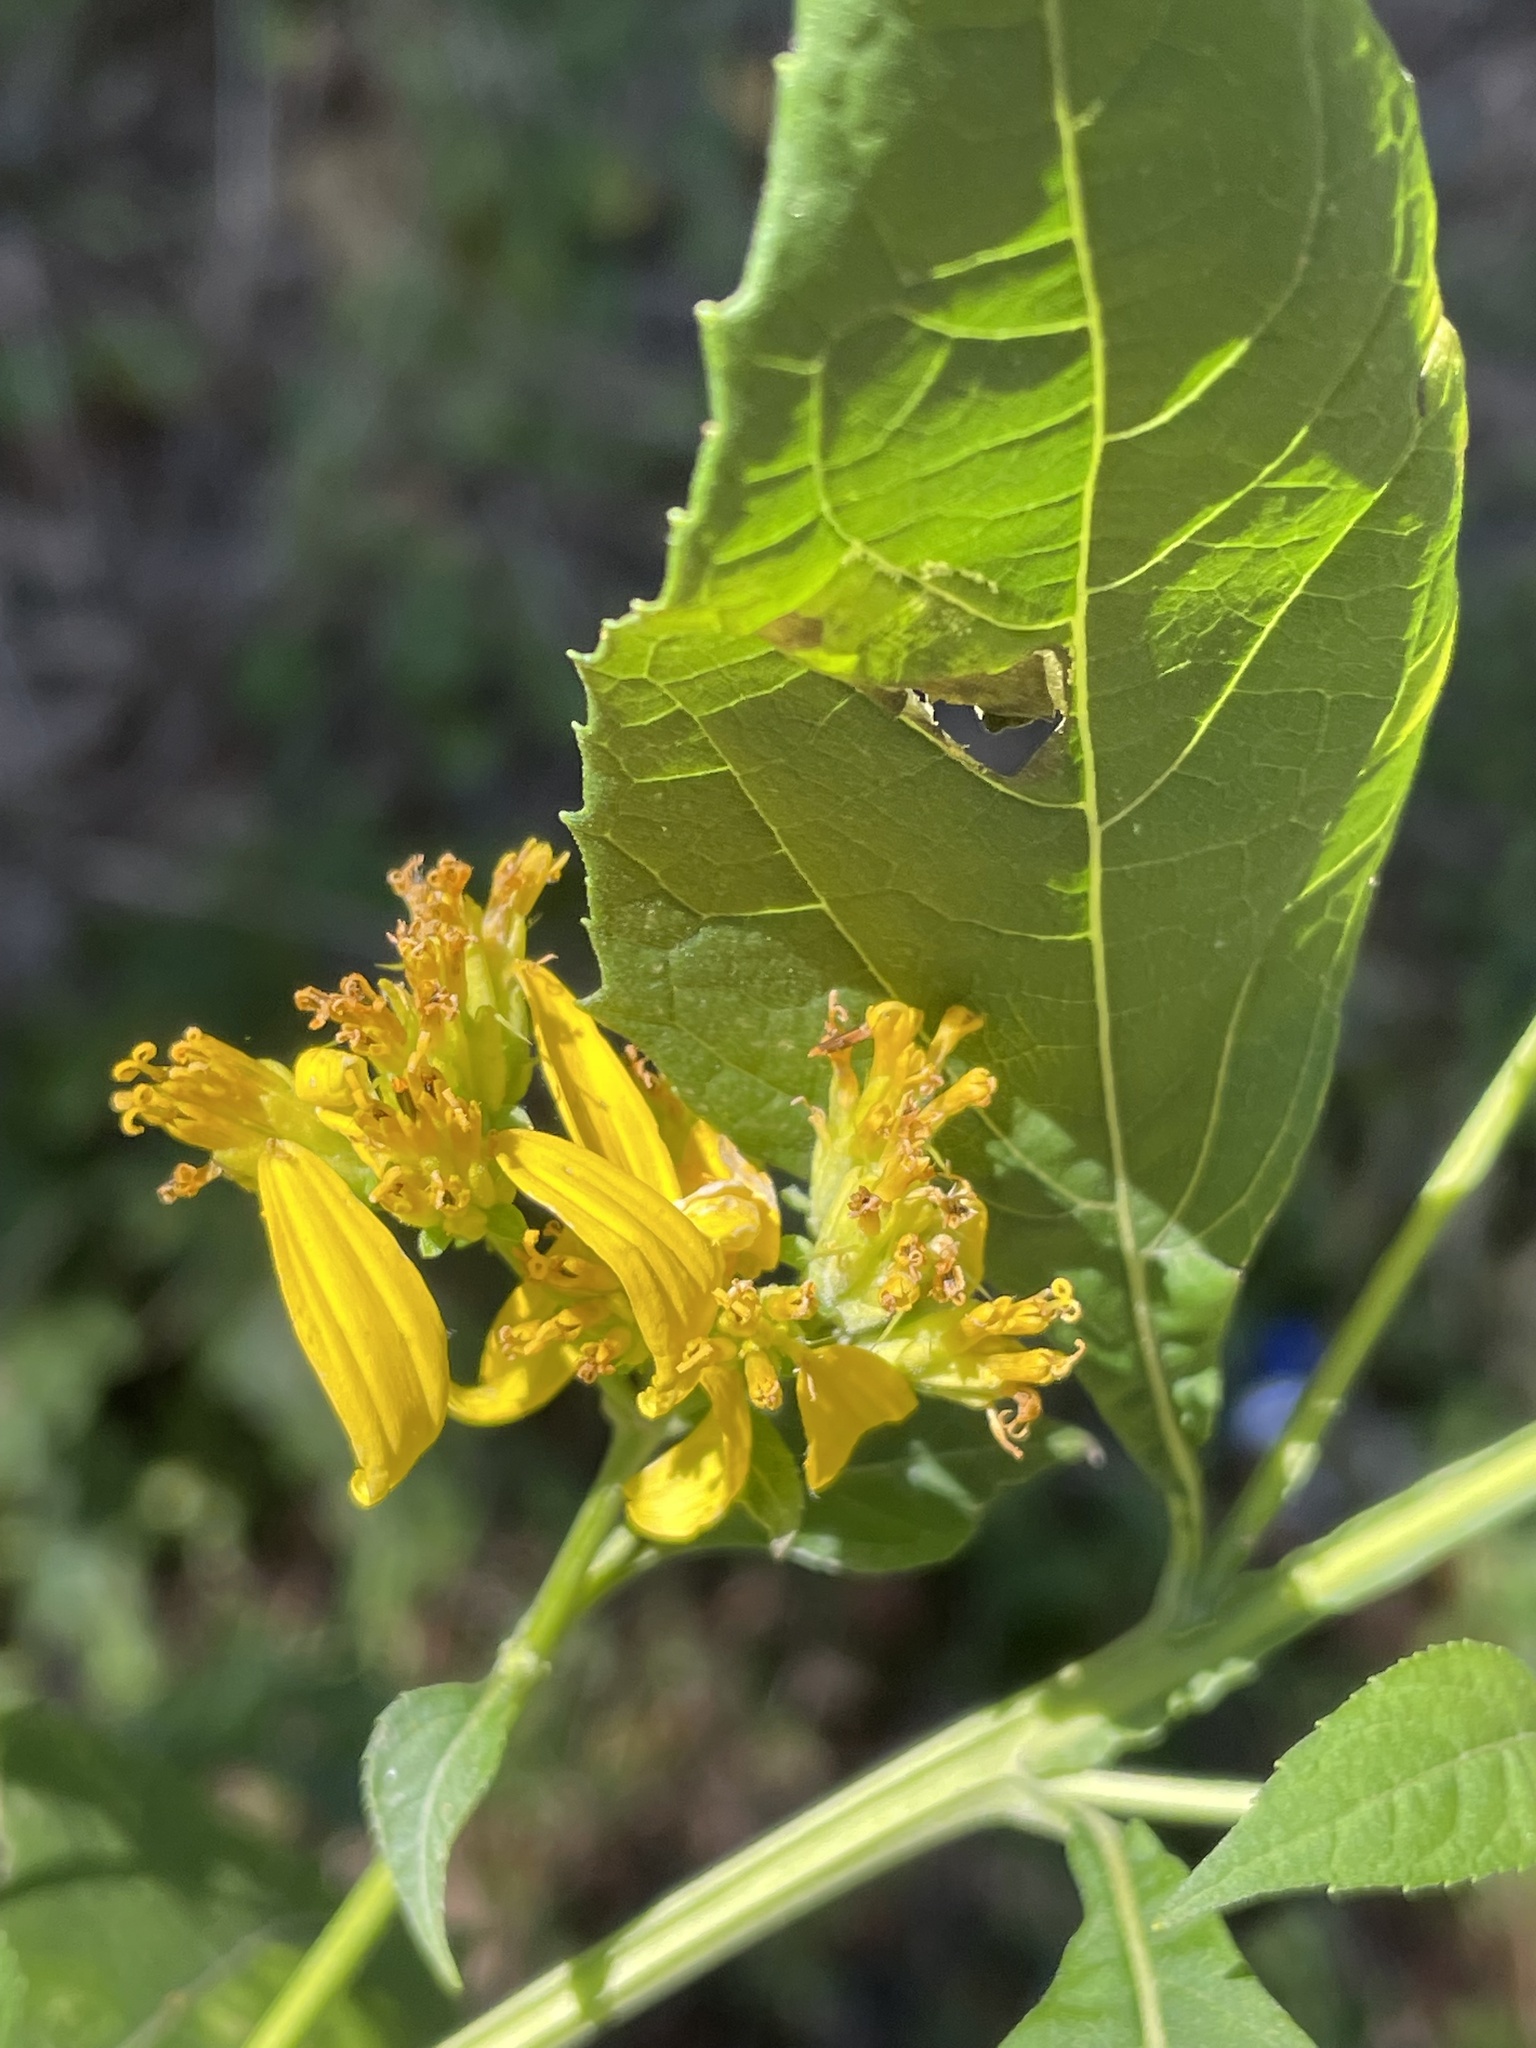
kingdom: Plantae
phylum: Tracheophyta
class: Magnoliopsida
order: Asterales
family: Asteraceae
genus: Verbesina
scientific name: Verbesina occidentalis
